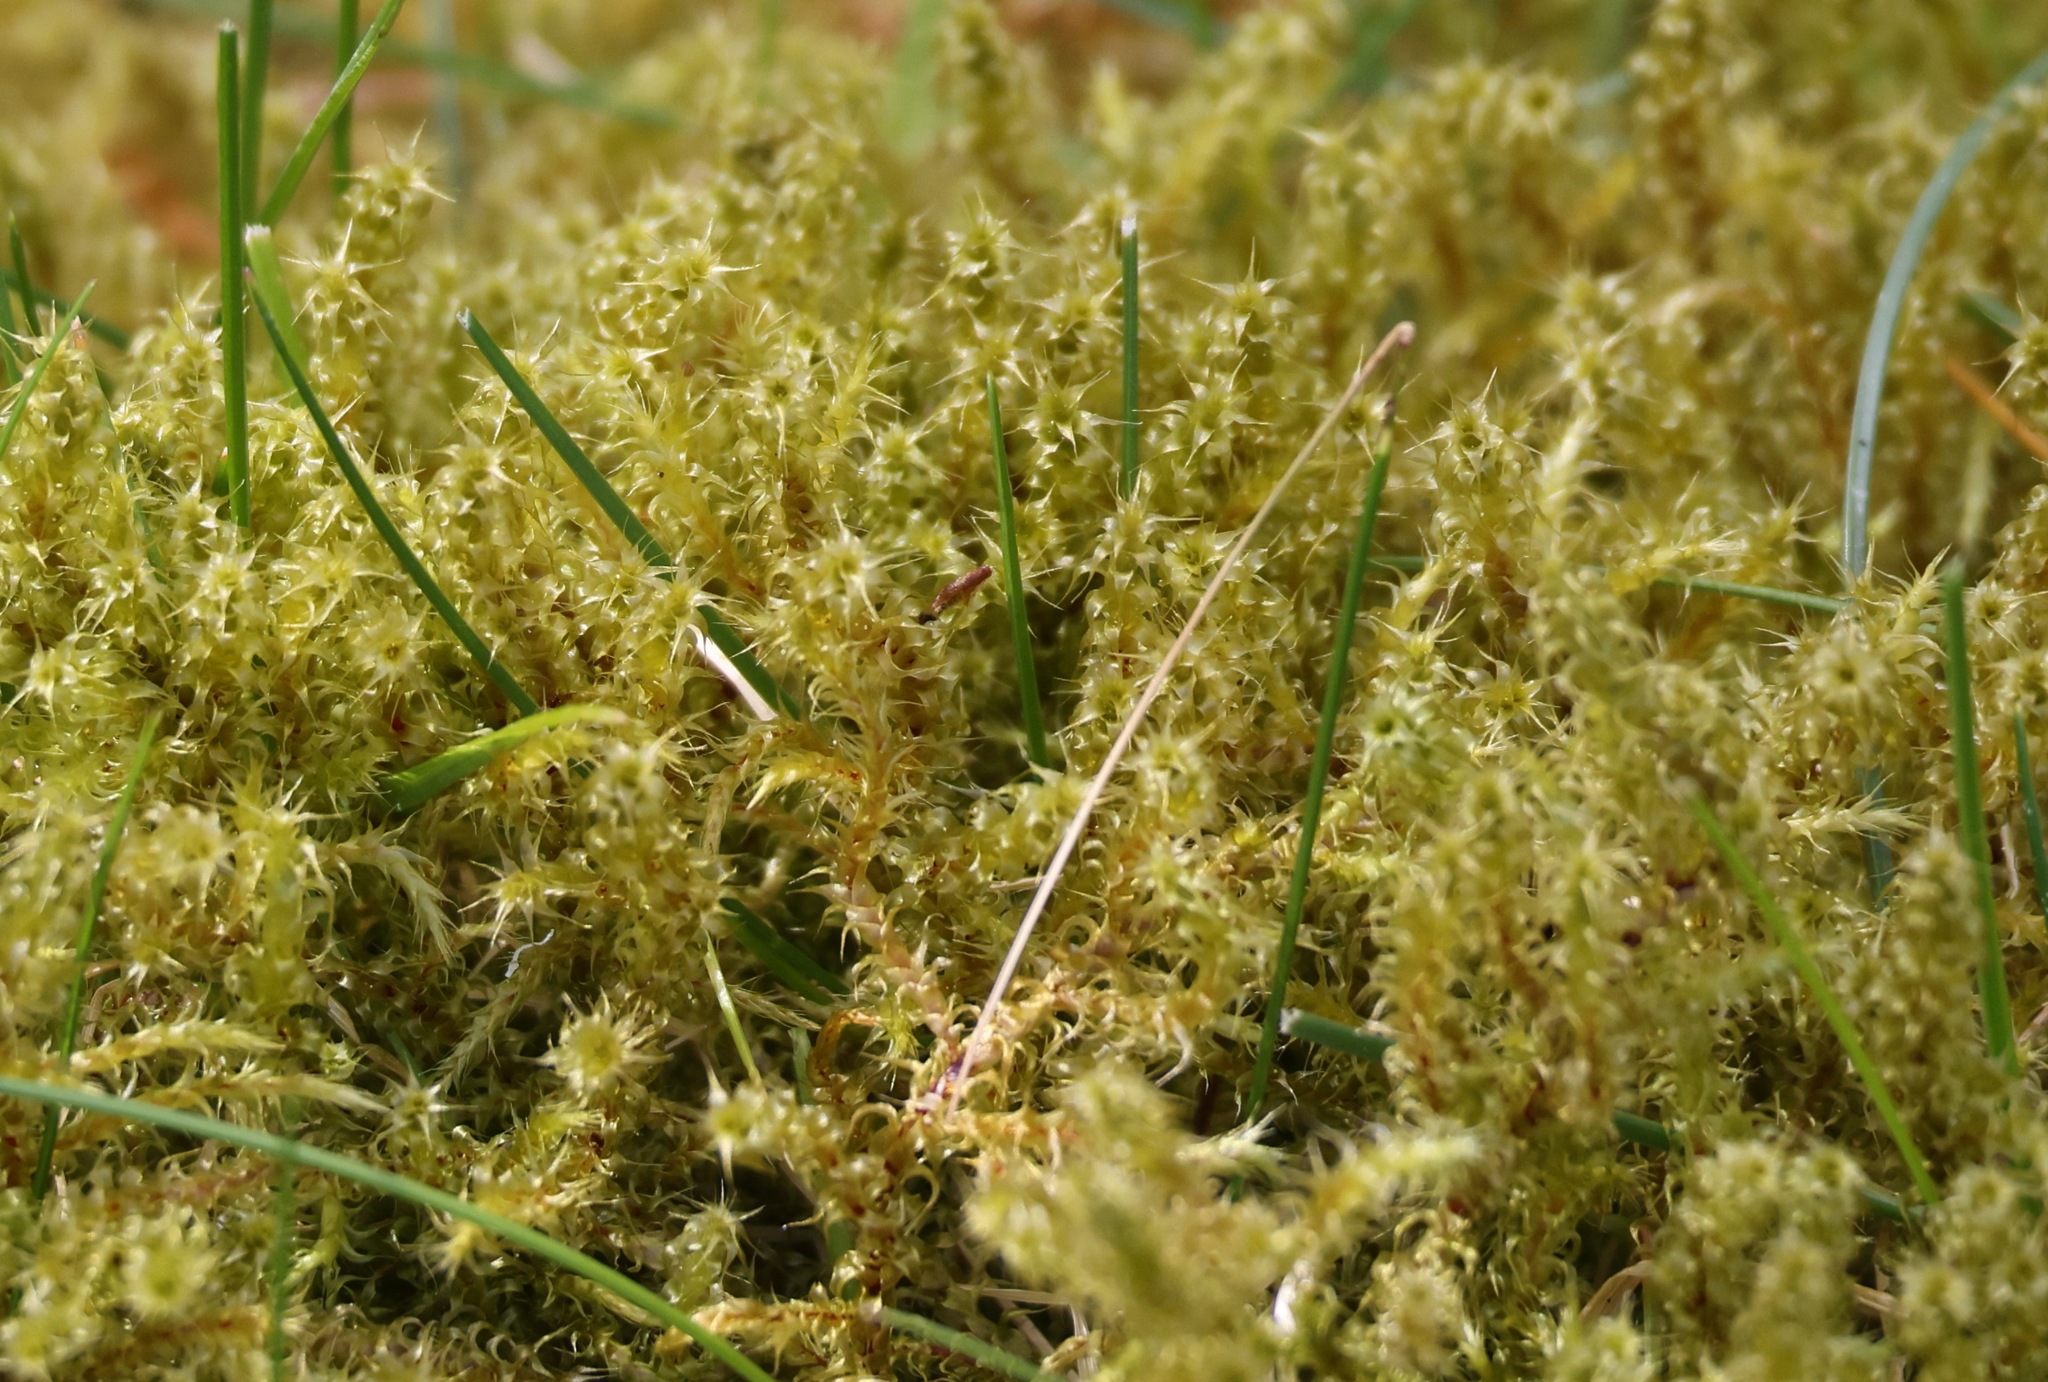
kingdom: Plantae
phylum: Bryophyta
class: Bryopsida
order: Hypnales
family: Hylocomiaceae
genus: Rhytidiadelphus
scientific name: Rhytidiadelphus squarrosus
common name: Springy turf-moss
